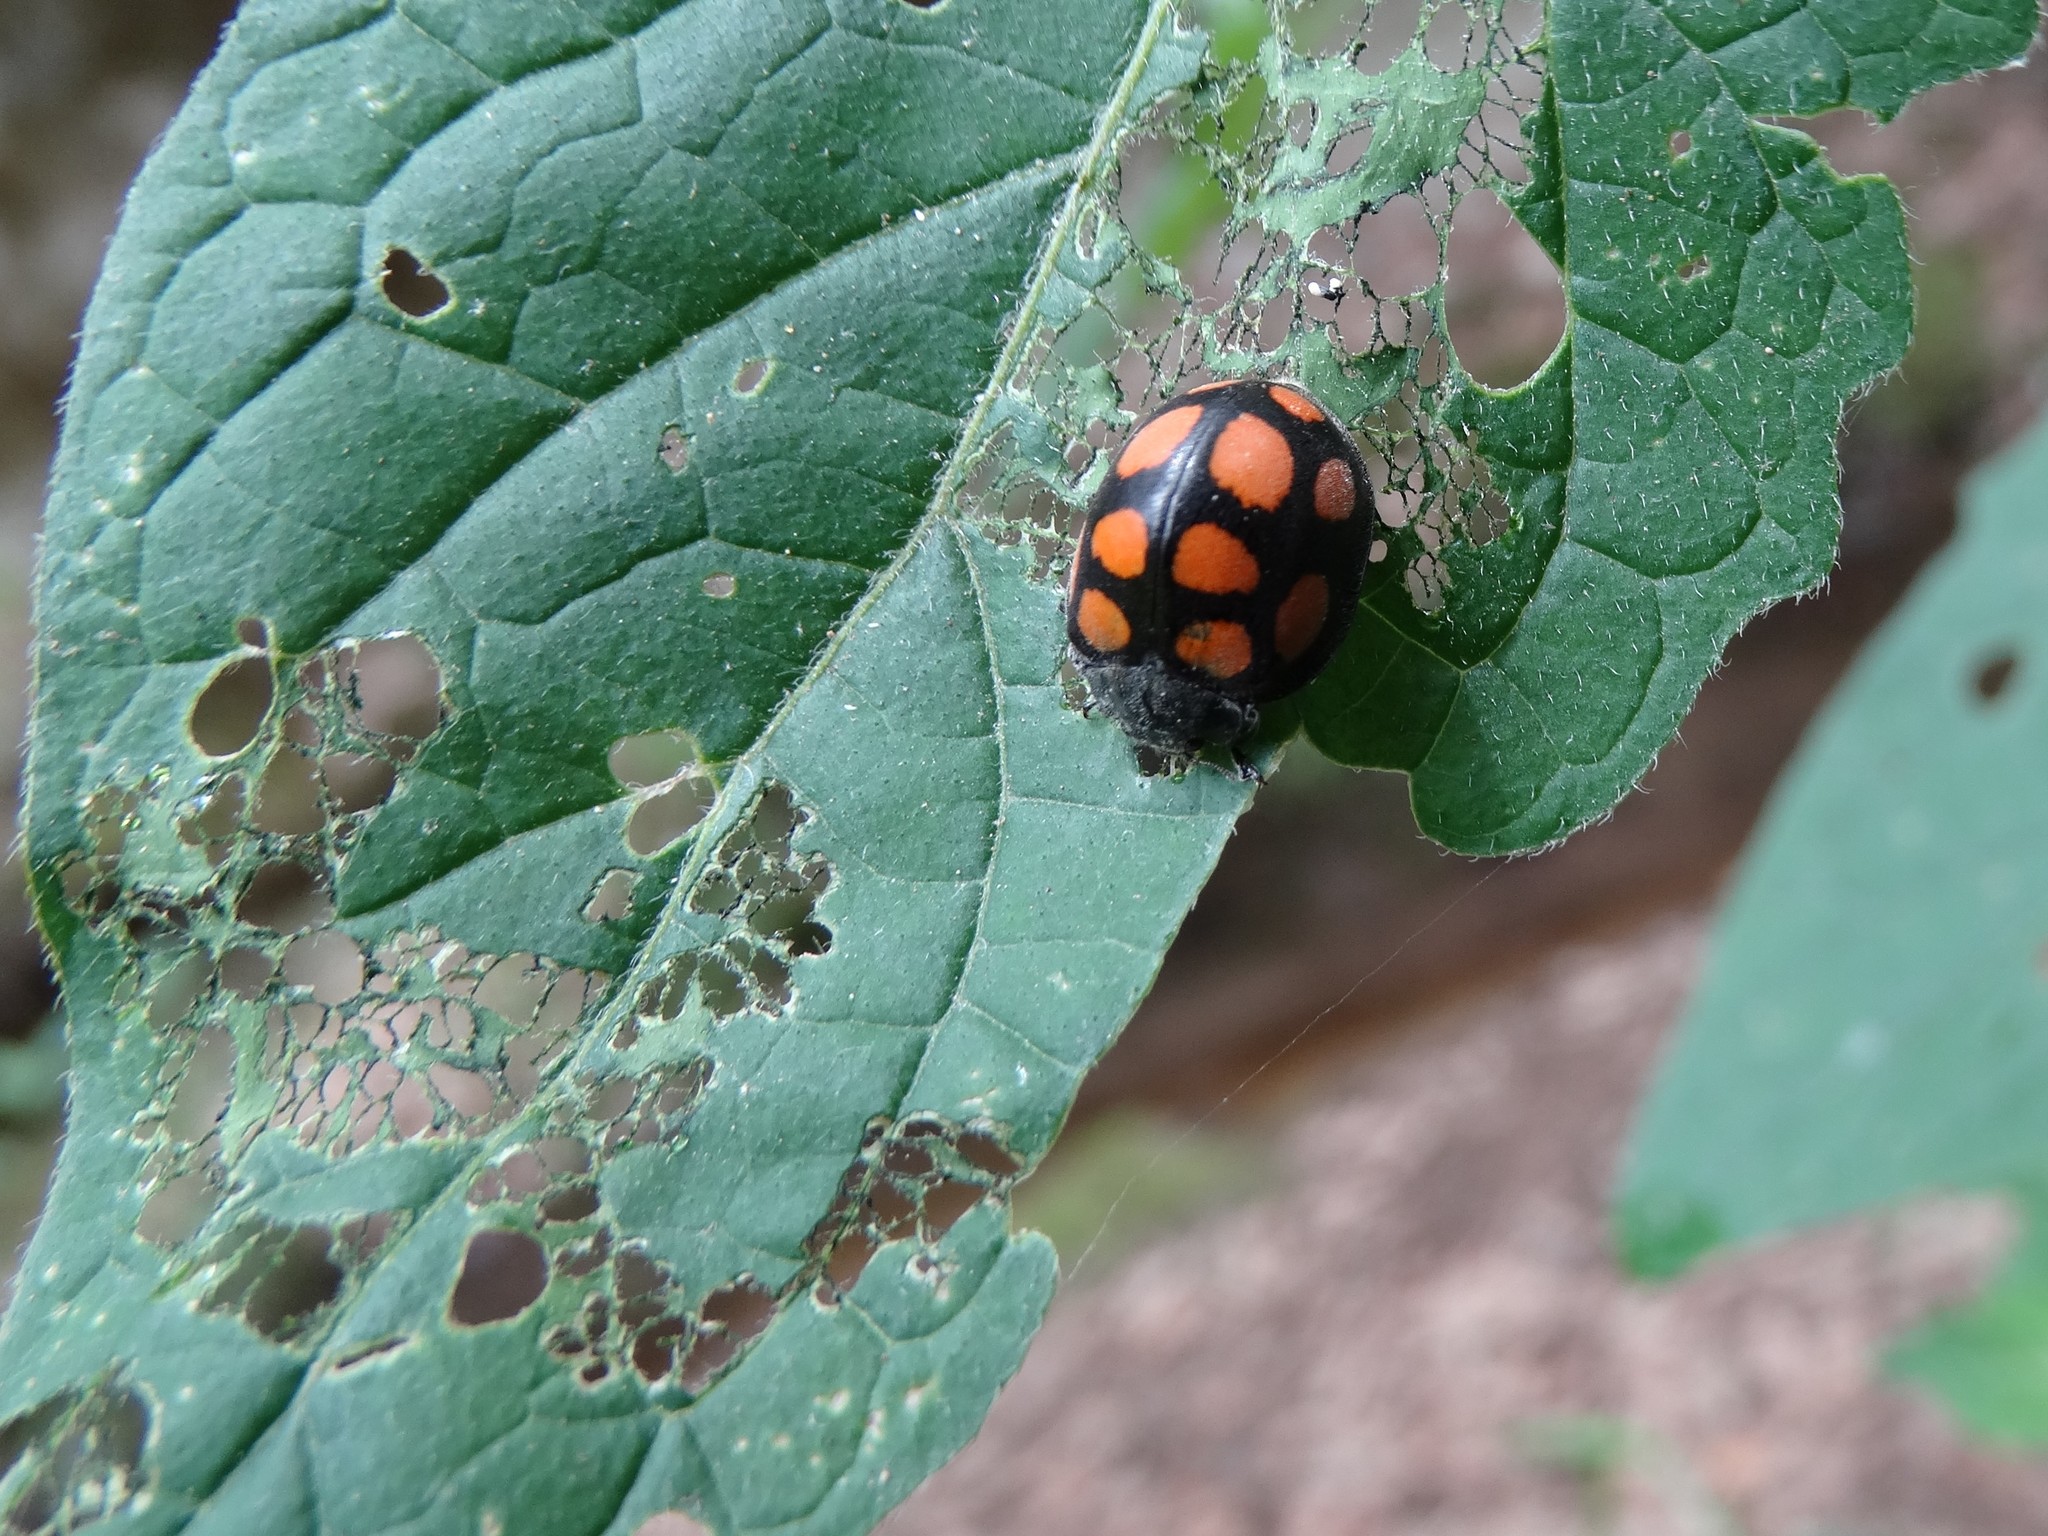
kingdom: Animalia
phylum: Arthropoda
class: Insecta
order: Coleoptera
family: Coccinellidae
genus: Epilachna
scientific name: Epilachna
